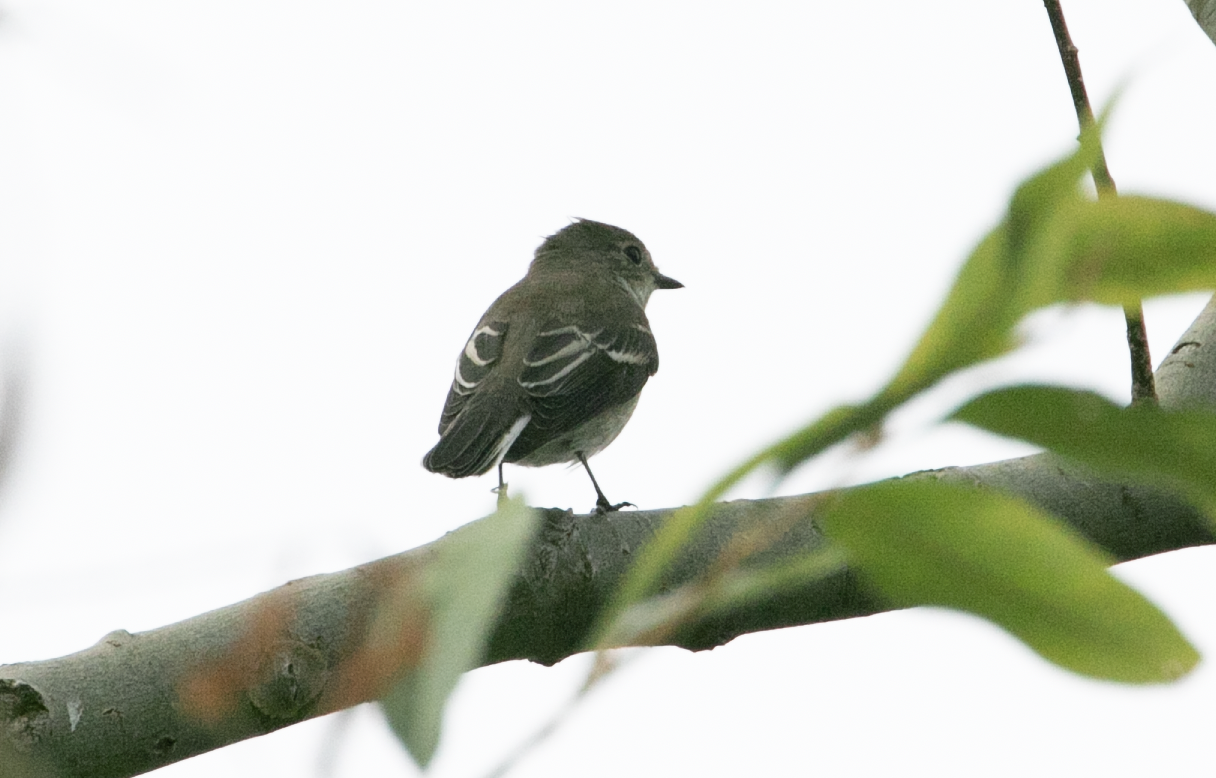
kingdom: Animalia
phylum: Chordata
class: Aves
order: Passeriformes
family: Muscicapidae
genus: Ficedula
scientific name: Ficedula hypoleuca
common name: European pied flycatcher
